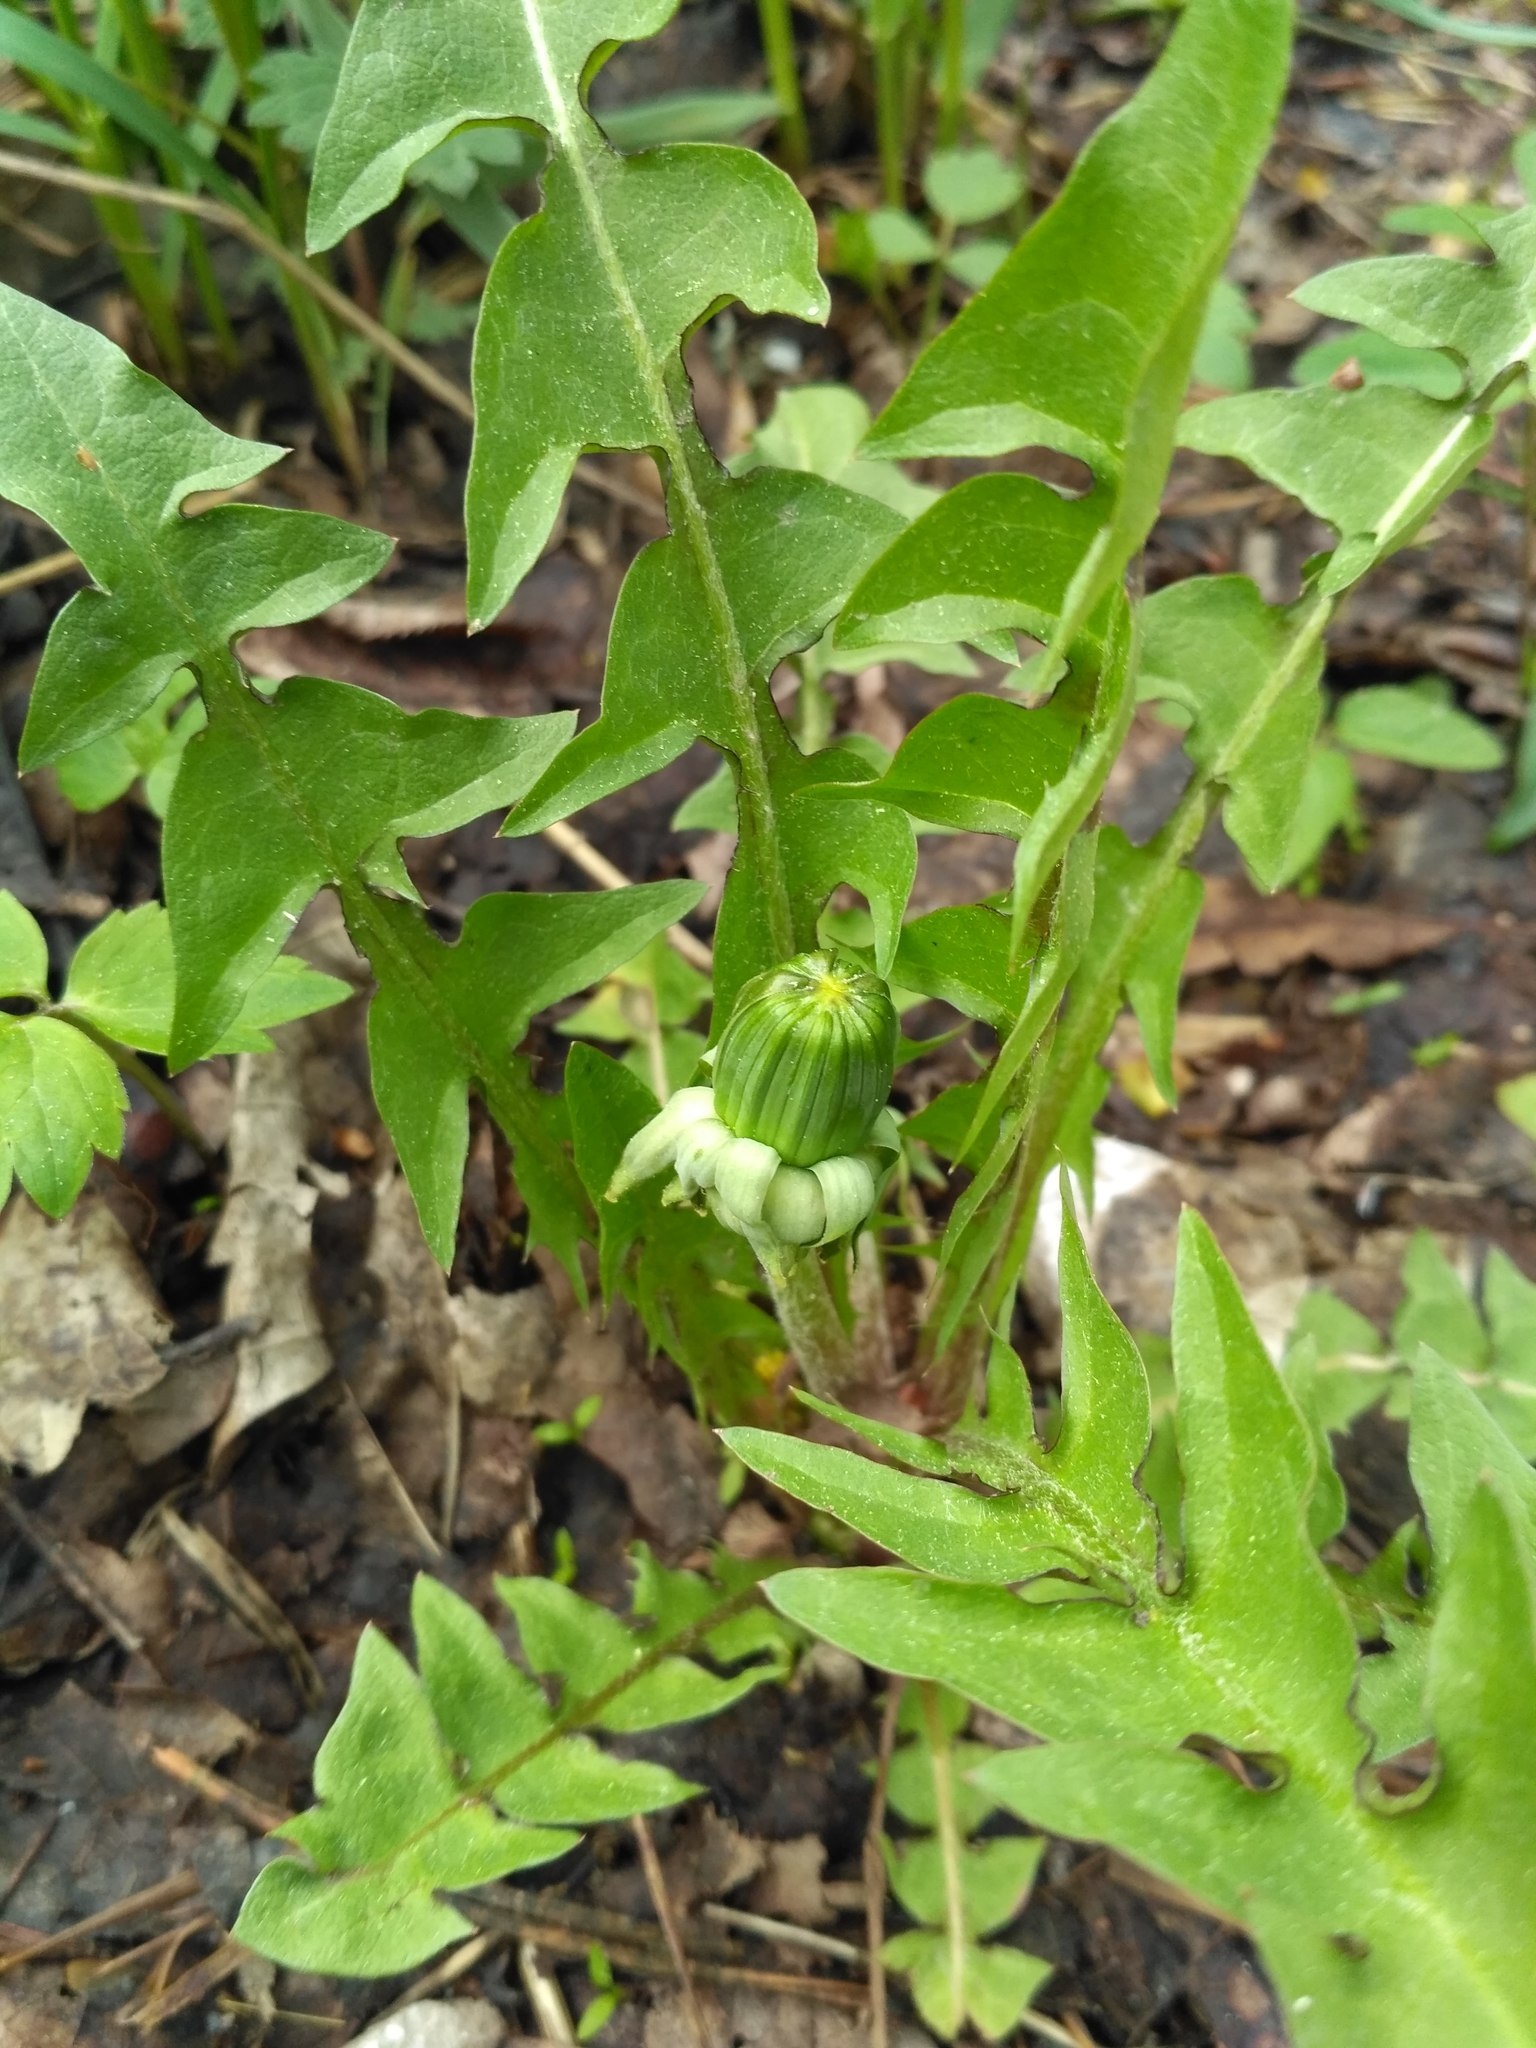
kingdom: Plantae
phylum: Tracheophyta
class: Magnoliopsida
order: Asterales
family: Asteraceae
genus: Taraxacum
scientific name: Taraxacum officinale
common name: Common dandelion
